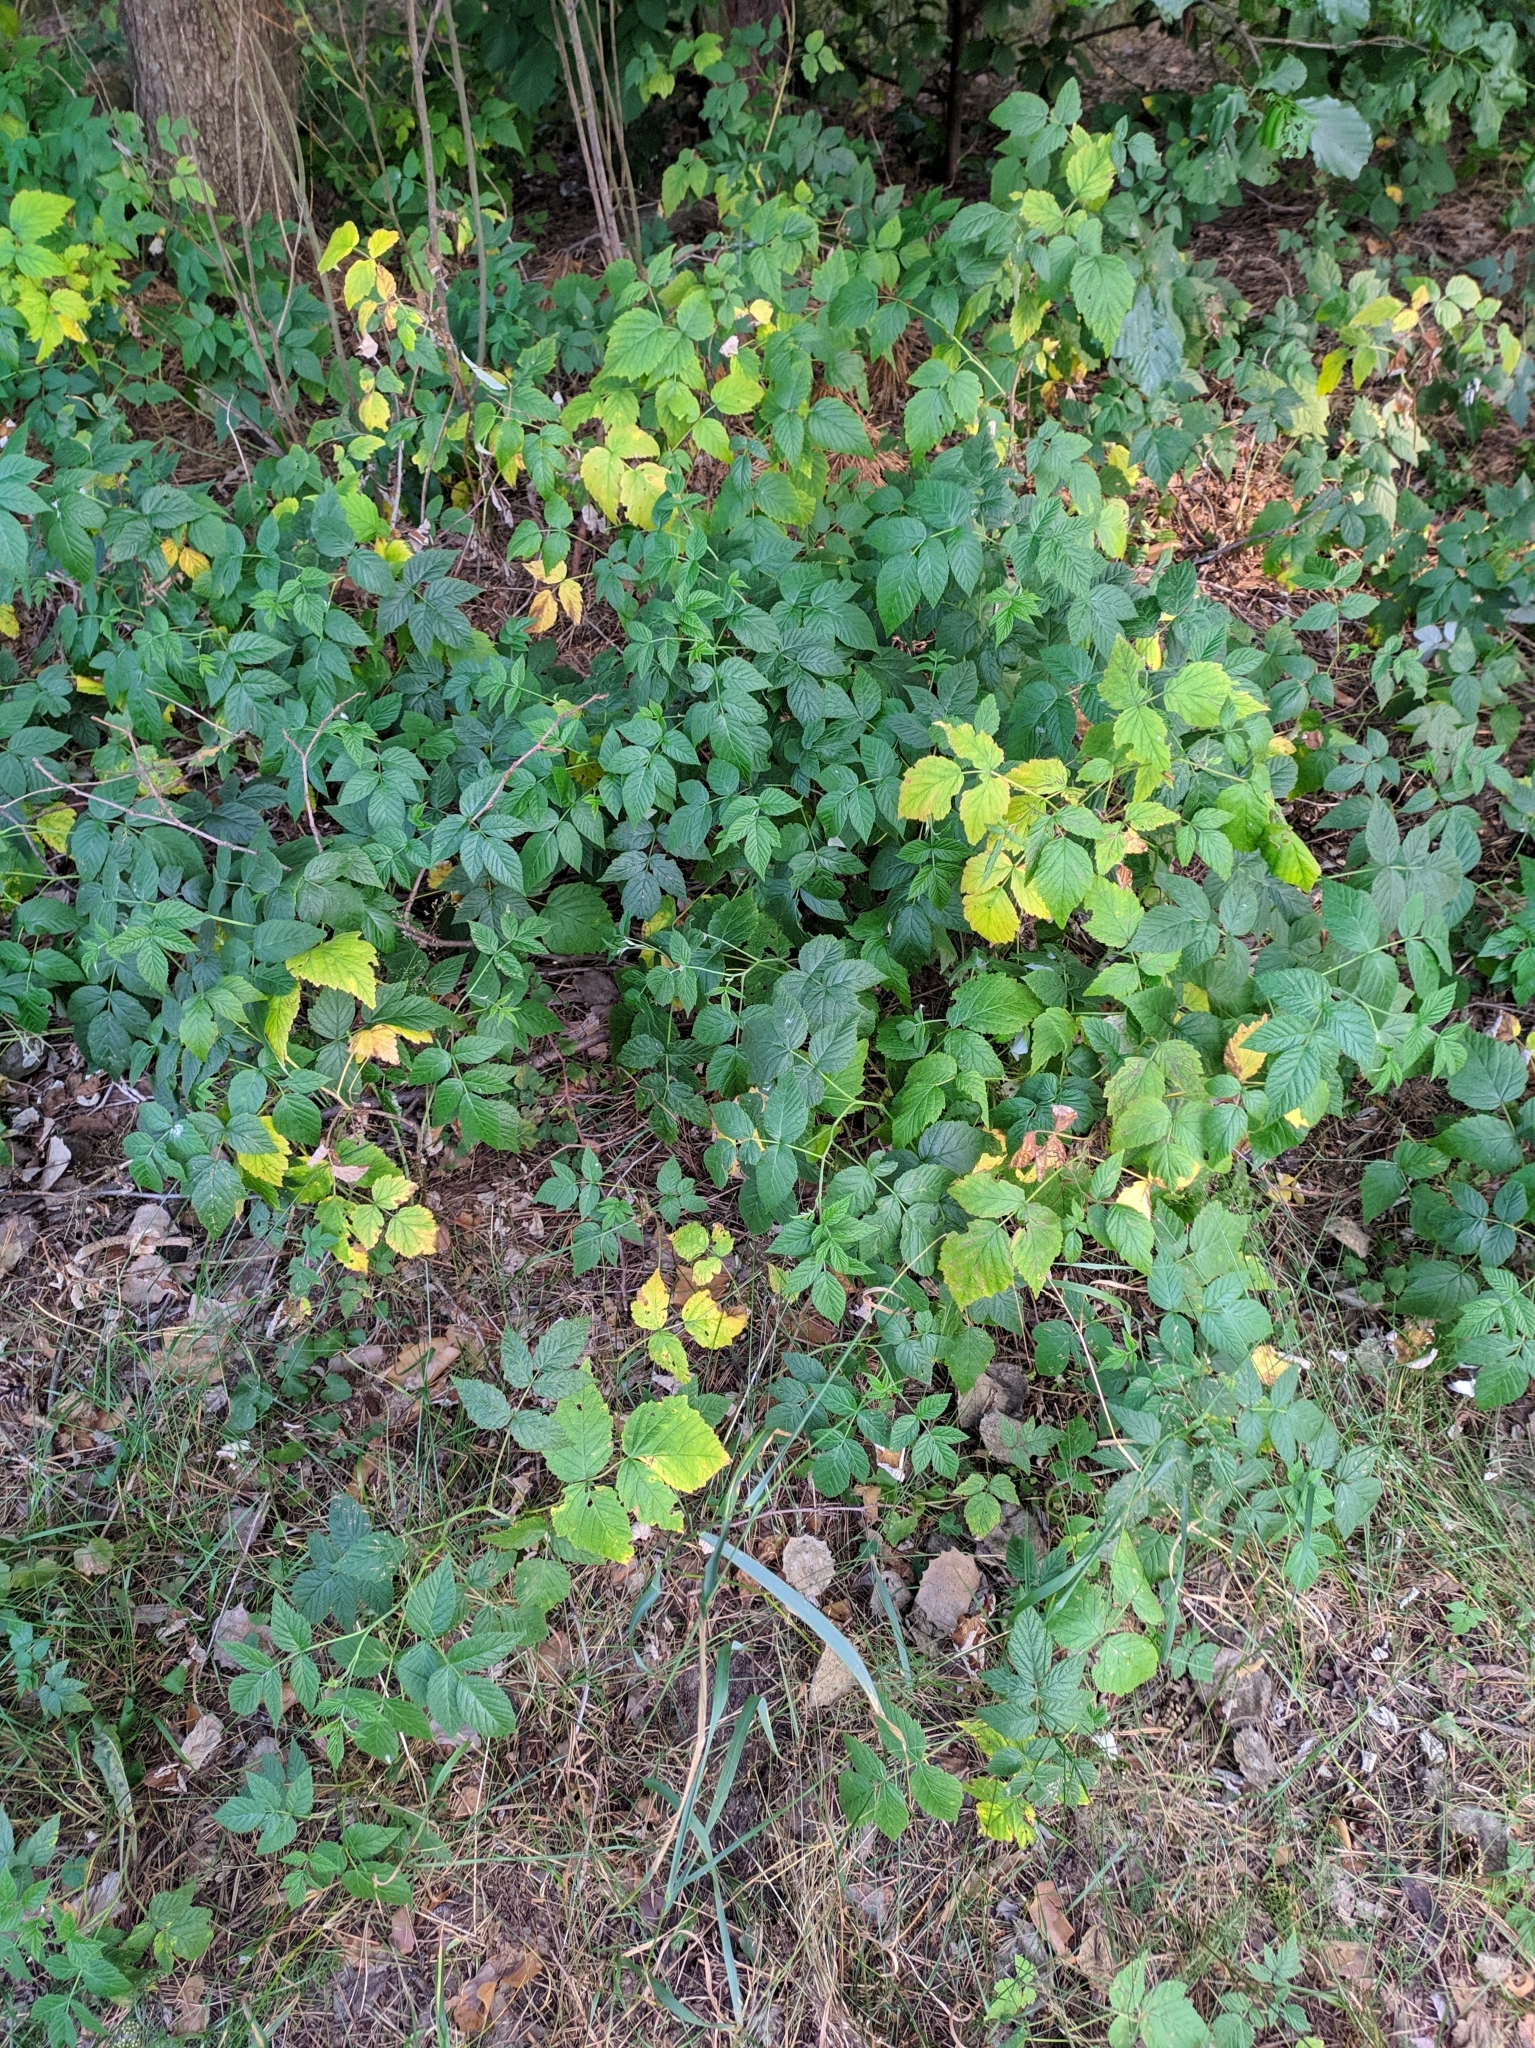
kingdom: Plantae
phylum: Tracheophyta
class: Magnoliopsida
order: Rosales
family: Rosaceae
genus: Rubus
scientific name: Rubus idaeus
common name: Raspberry
